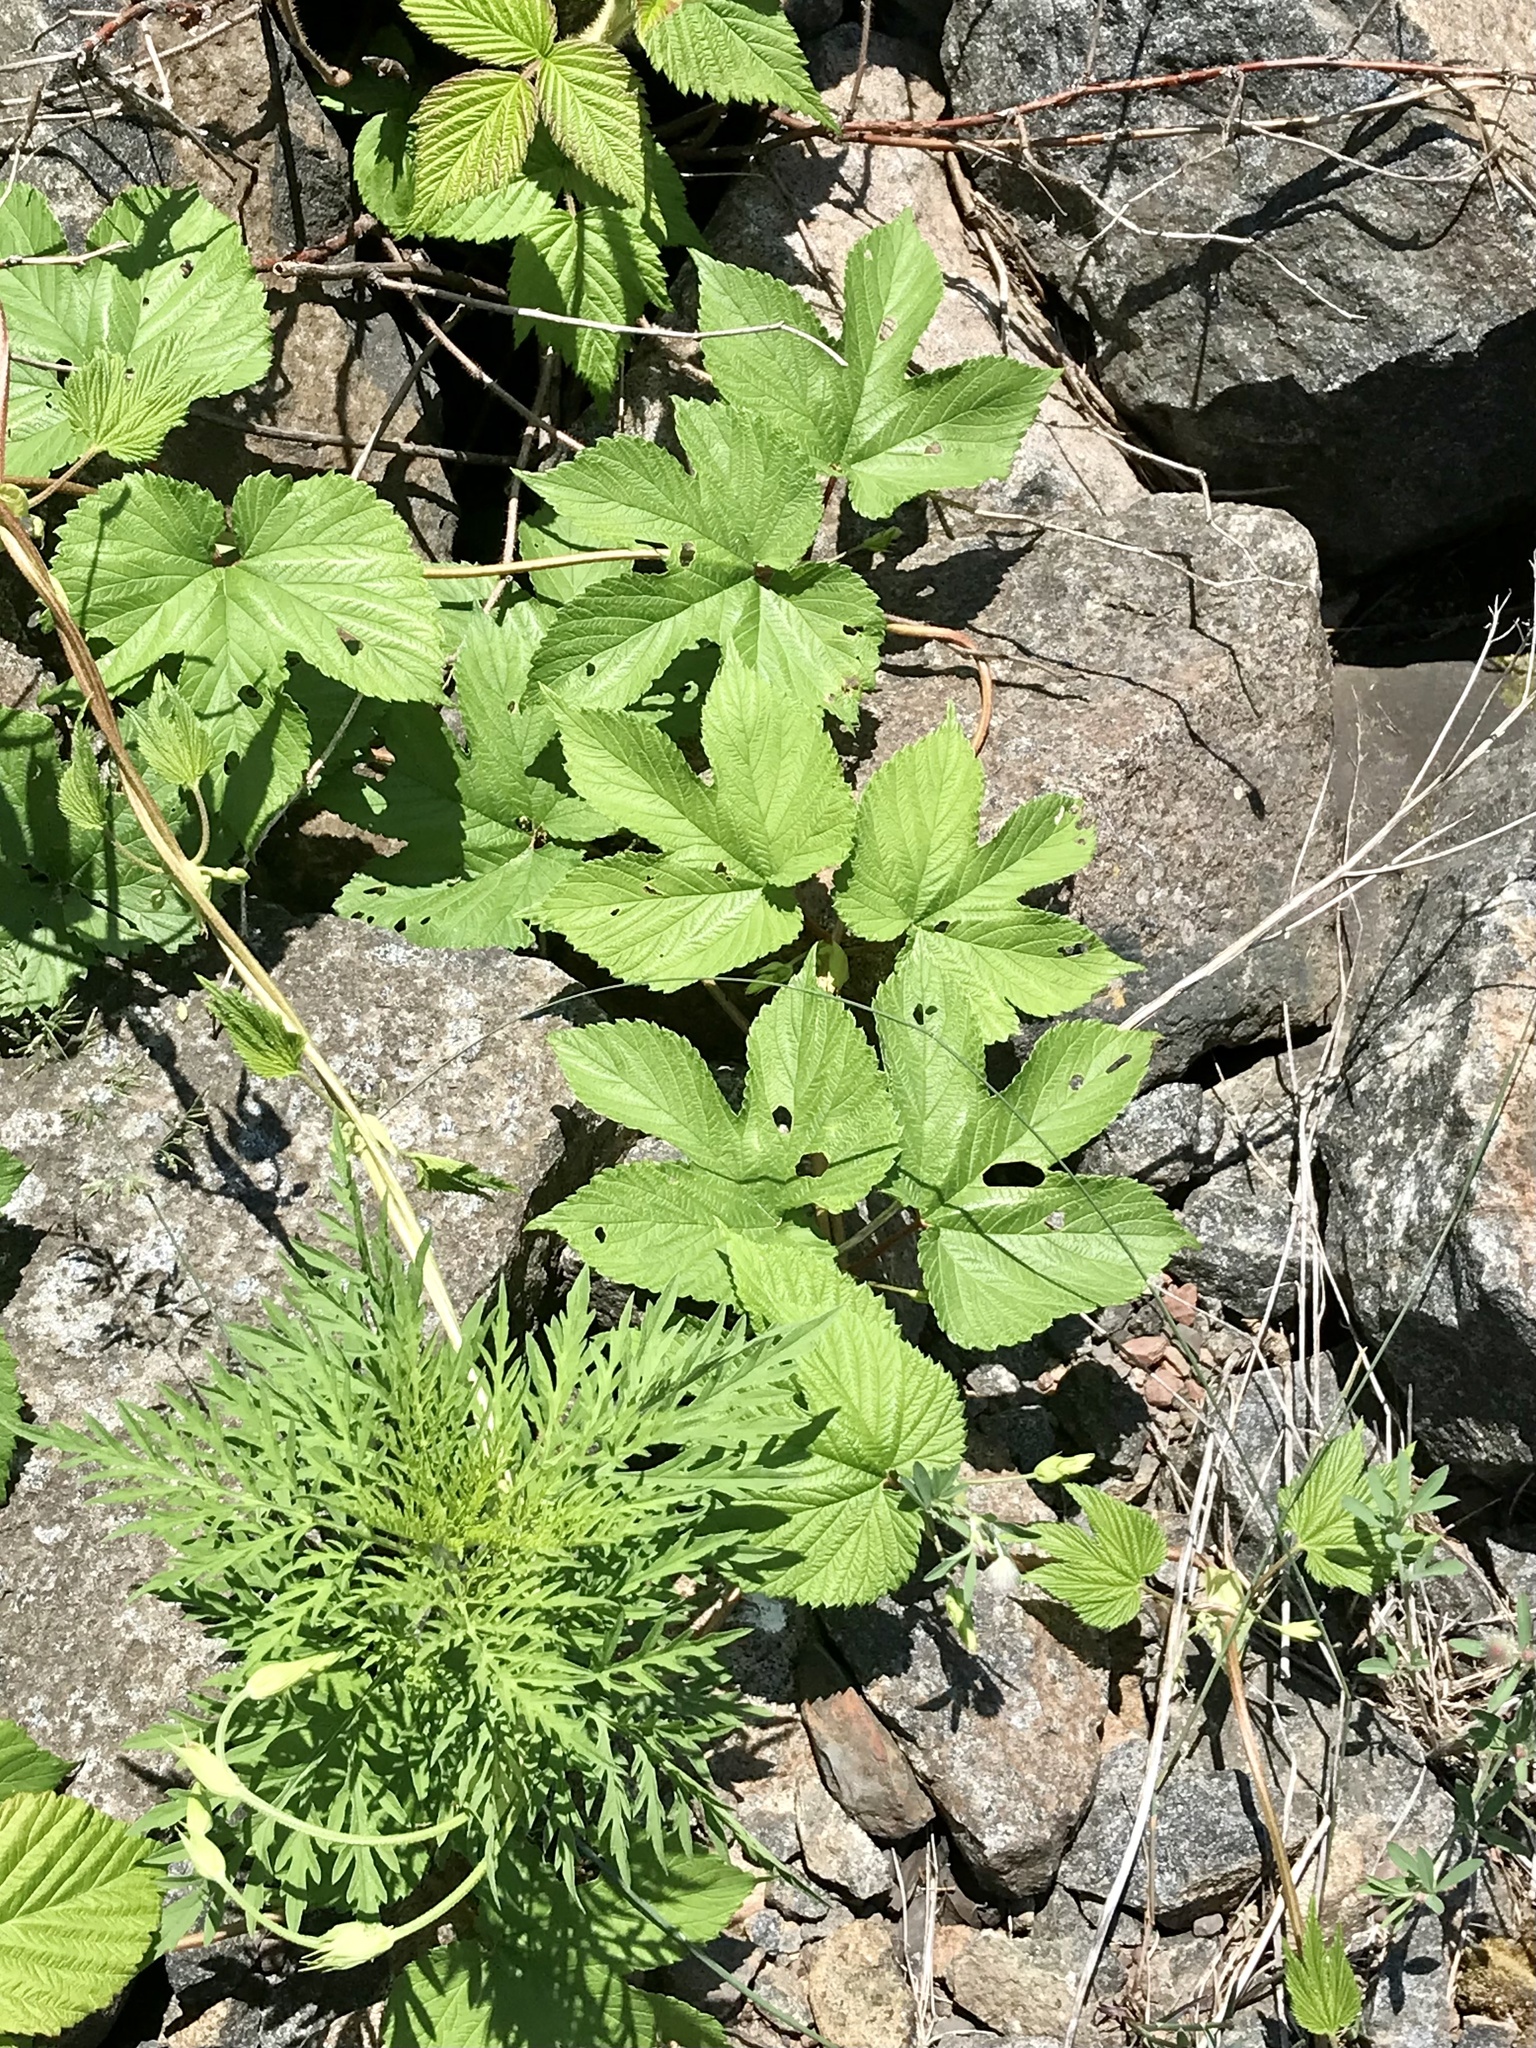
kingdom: Plantae
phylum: Tracheophyta
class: Magnoliopsida
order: Rosales
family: Cannabaceae
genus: Humulus
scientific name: Humulus lupulus
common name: Hop
